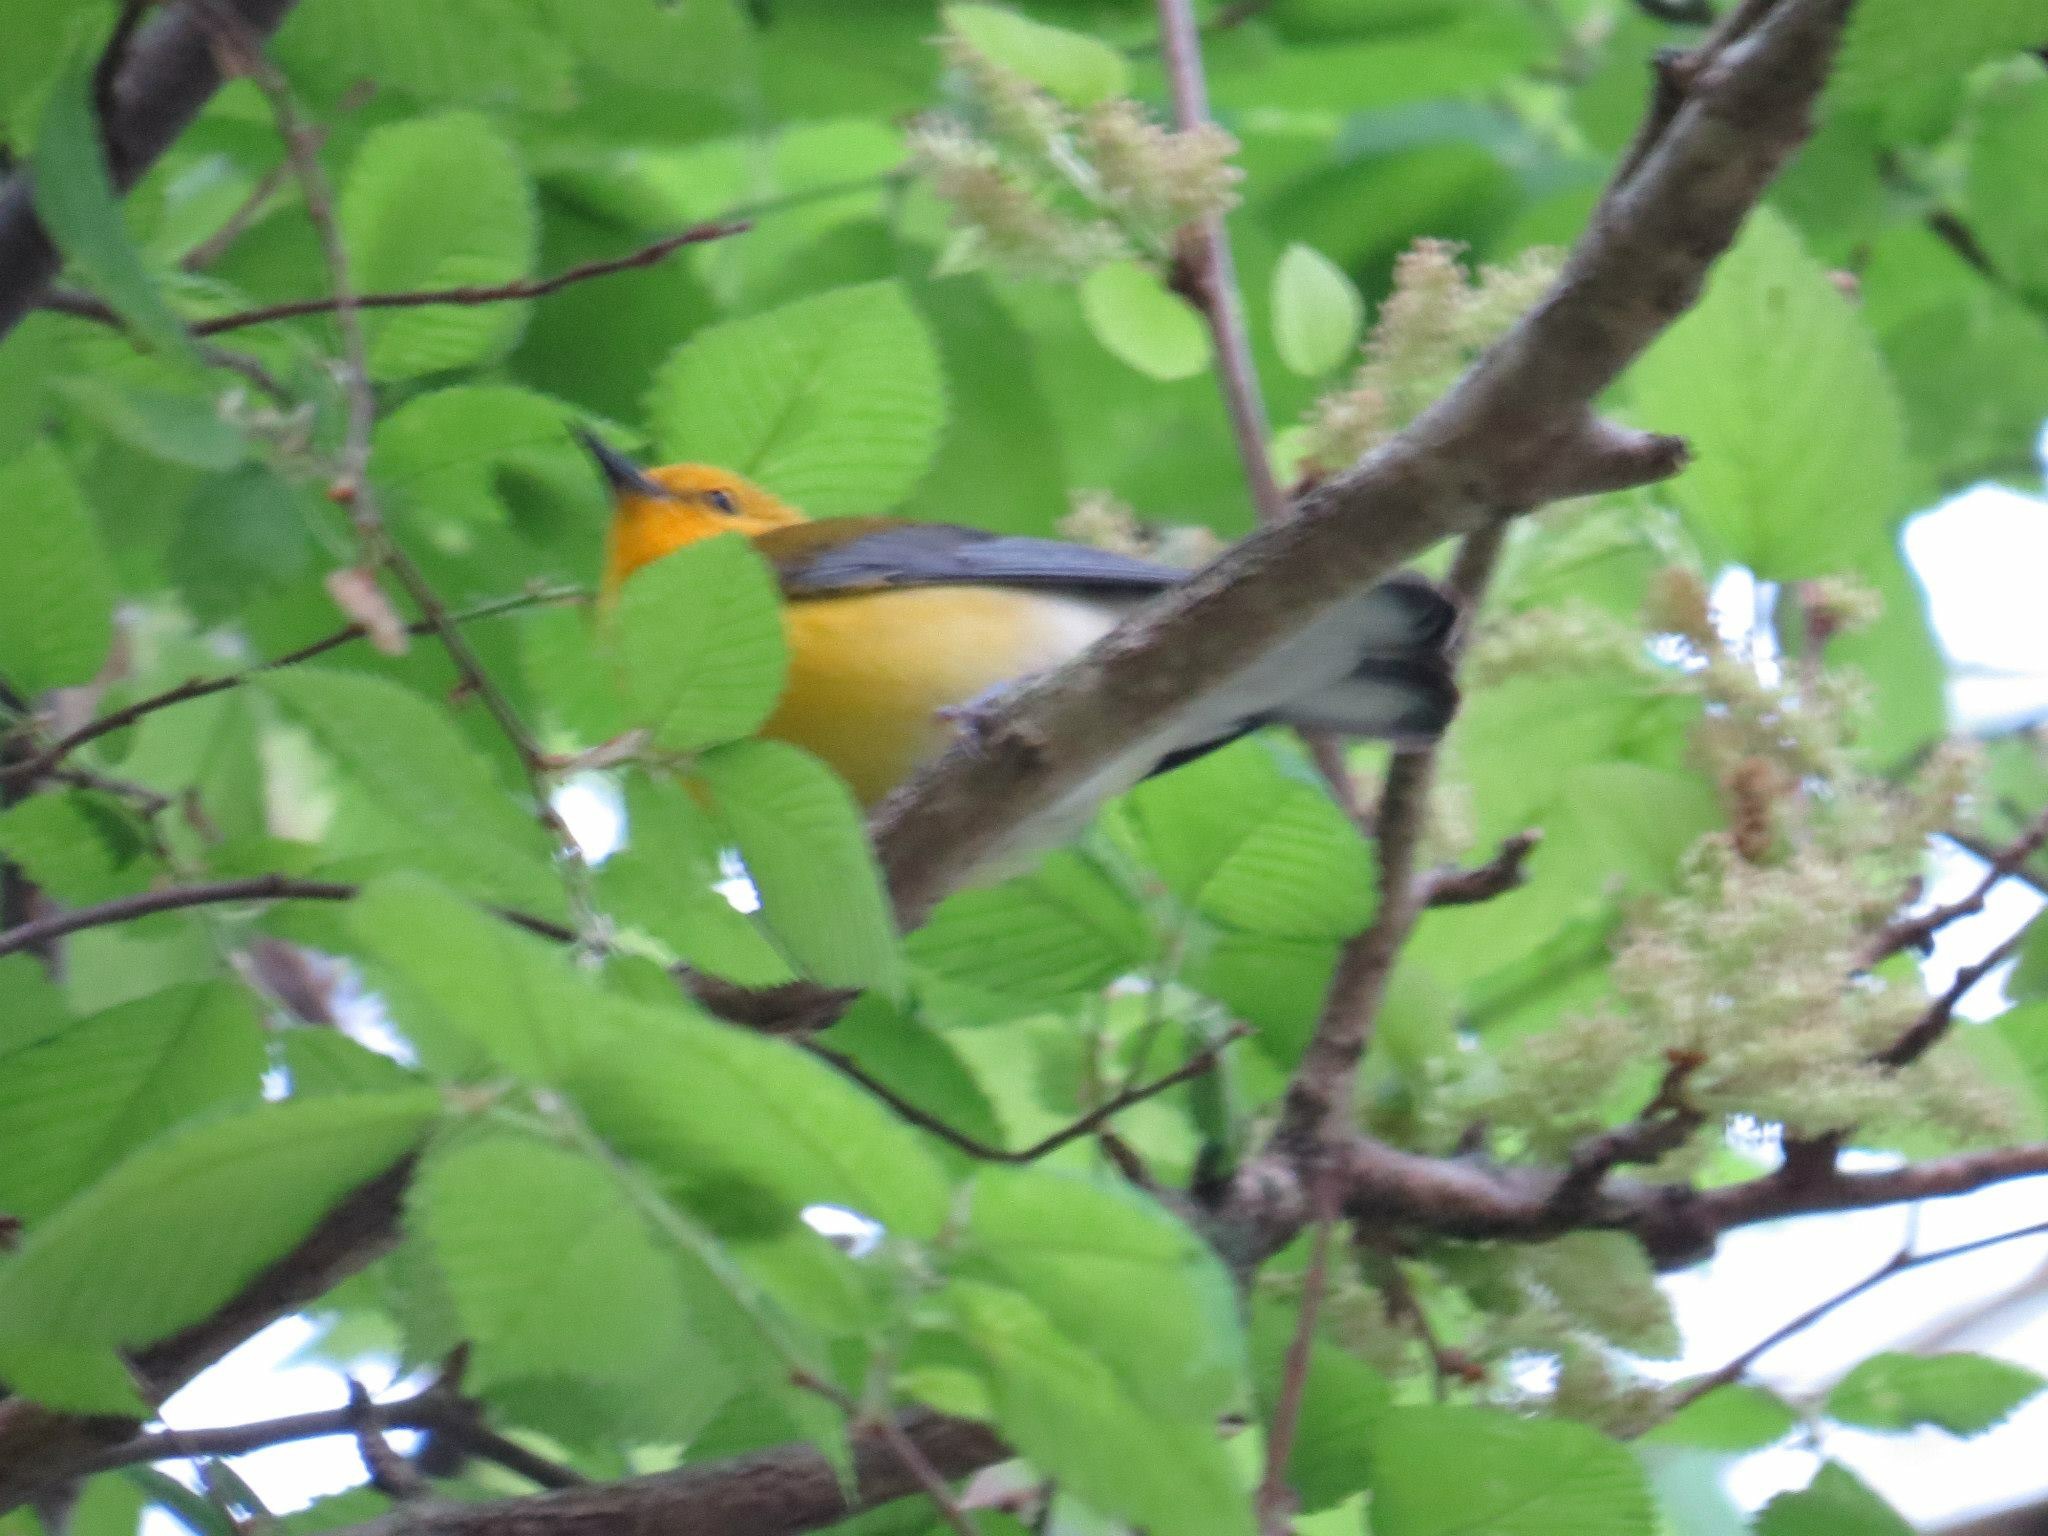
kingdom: Animalia
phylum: Chordata
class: Aves
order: Passeriformes
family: Parulidae
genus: Protonotaria
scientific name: Protonotaria citrea
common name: Prothonotary warbler
